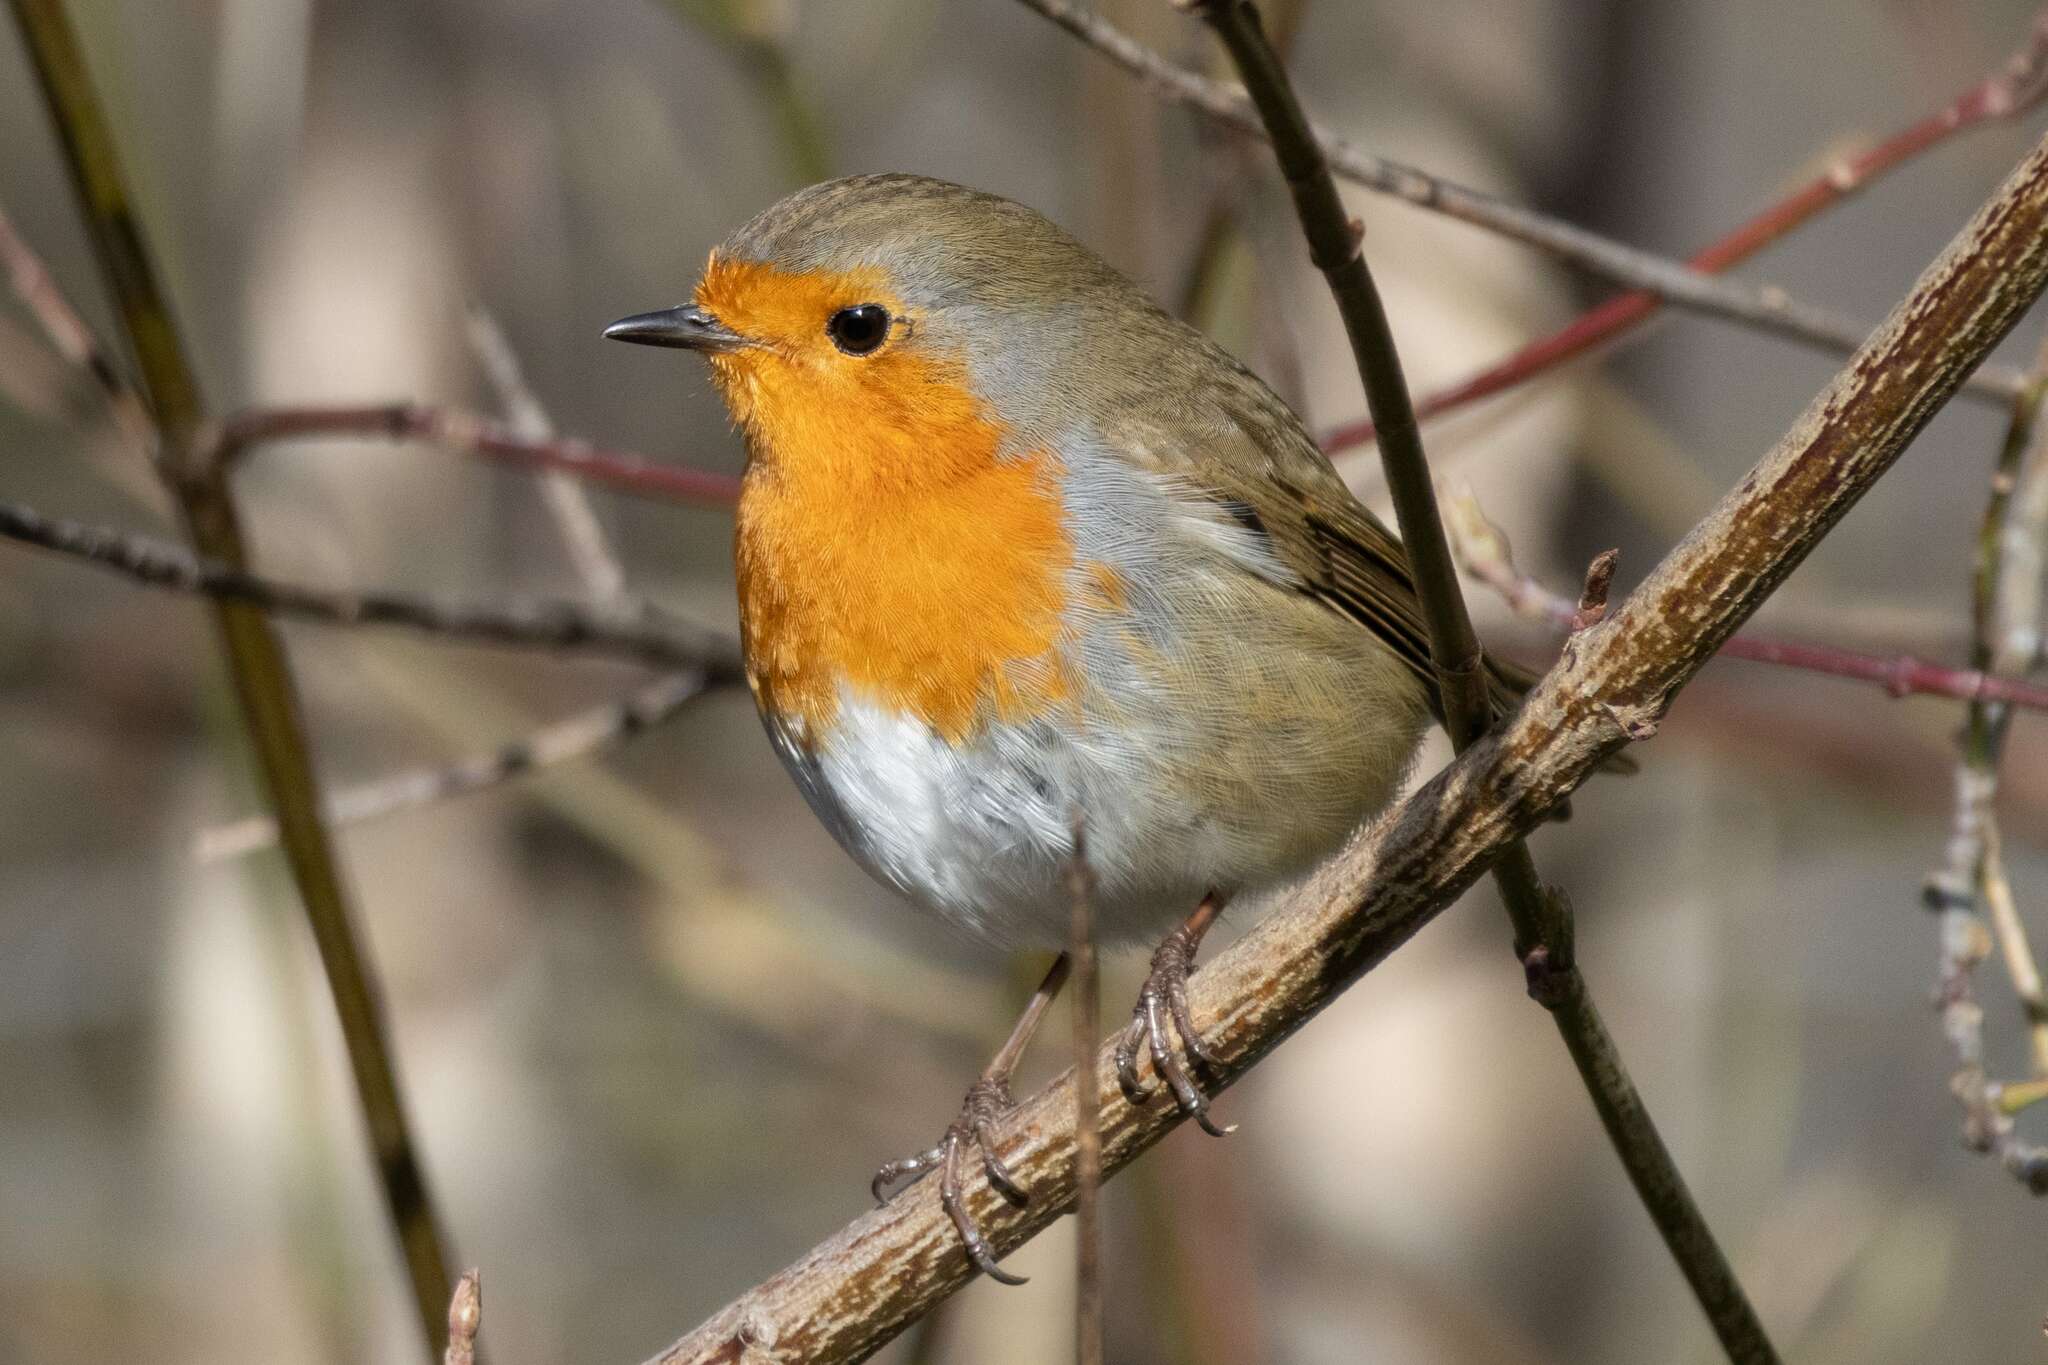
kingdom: Animalia
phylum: Chordata
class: Aves
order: Passeriformes
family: Muscicapidae
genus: Erithacus
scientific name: Erithacus rubecula
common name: European robin
